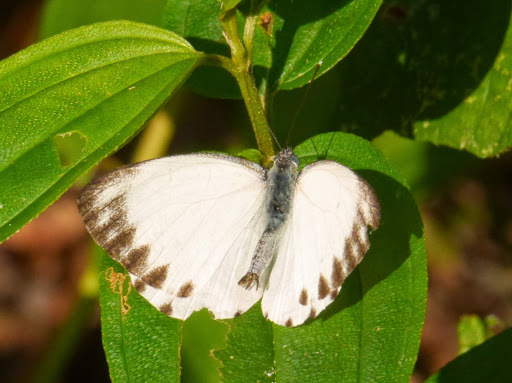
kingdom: Animalia
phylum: Arthropoda
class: Insecta
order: Lepidoptera
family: Pieridae
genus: Appias
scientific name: Appias
